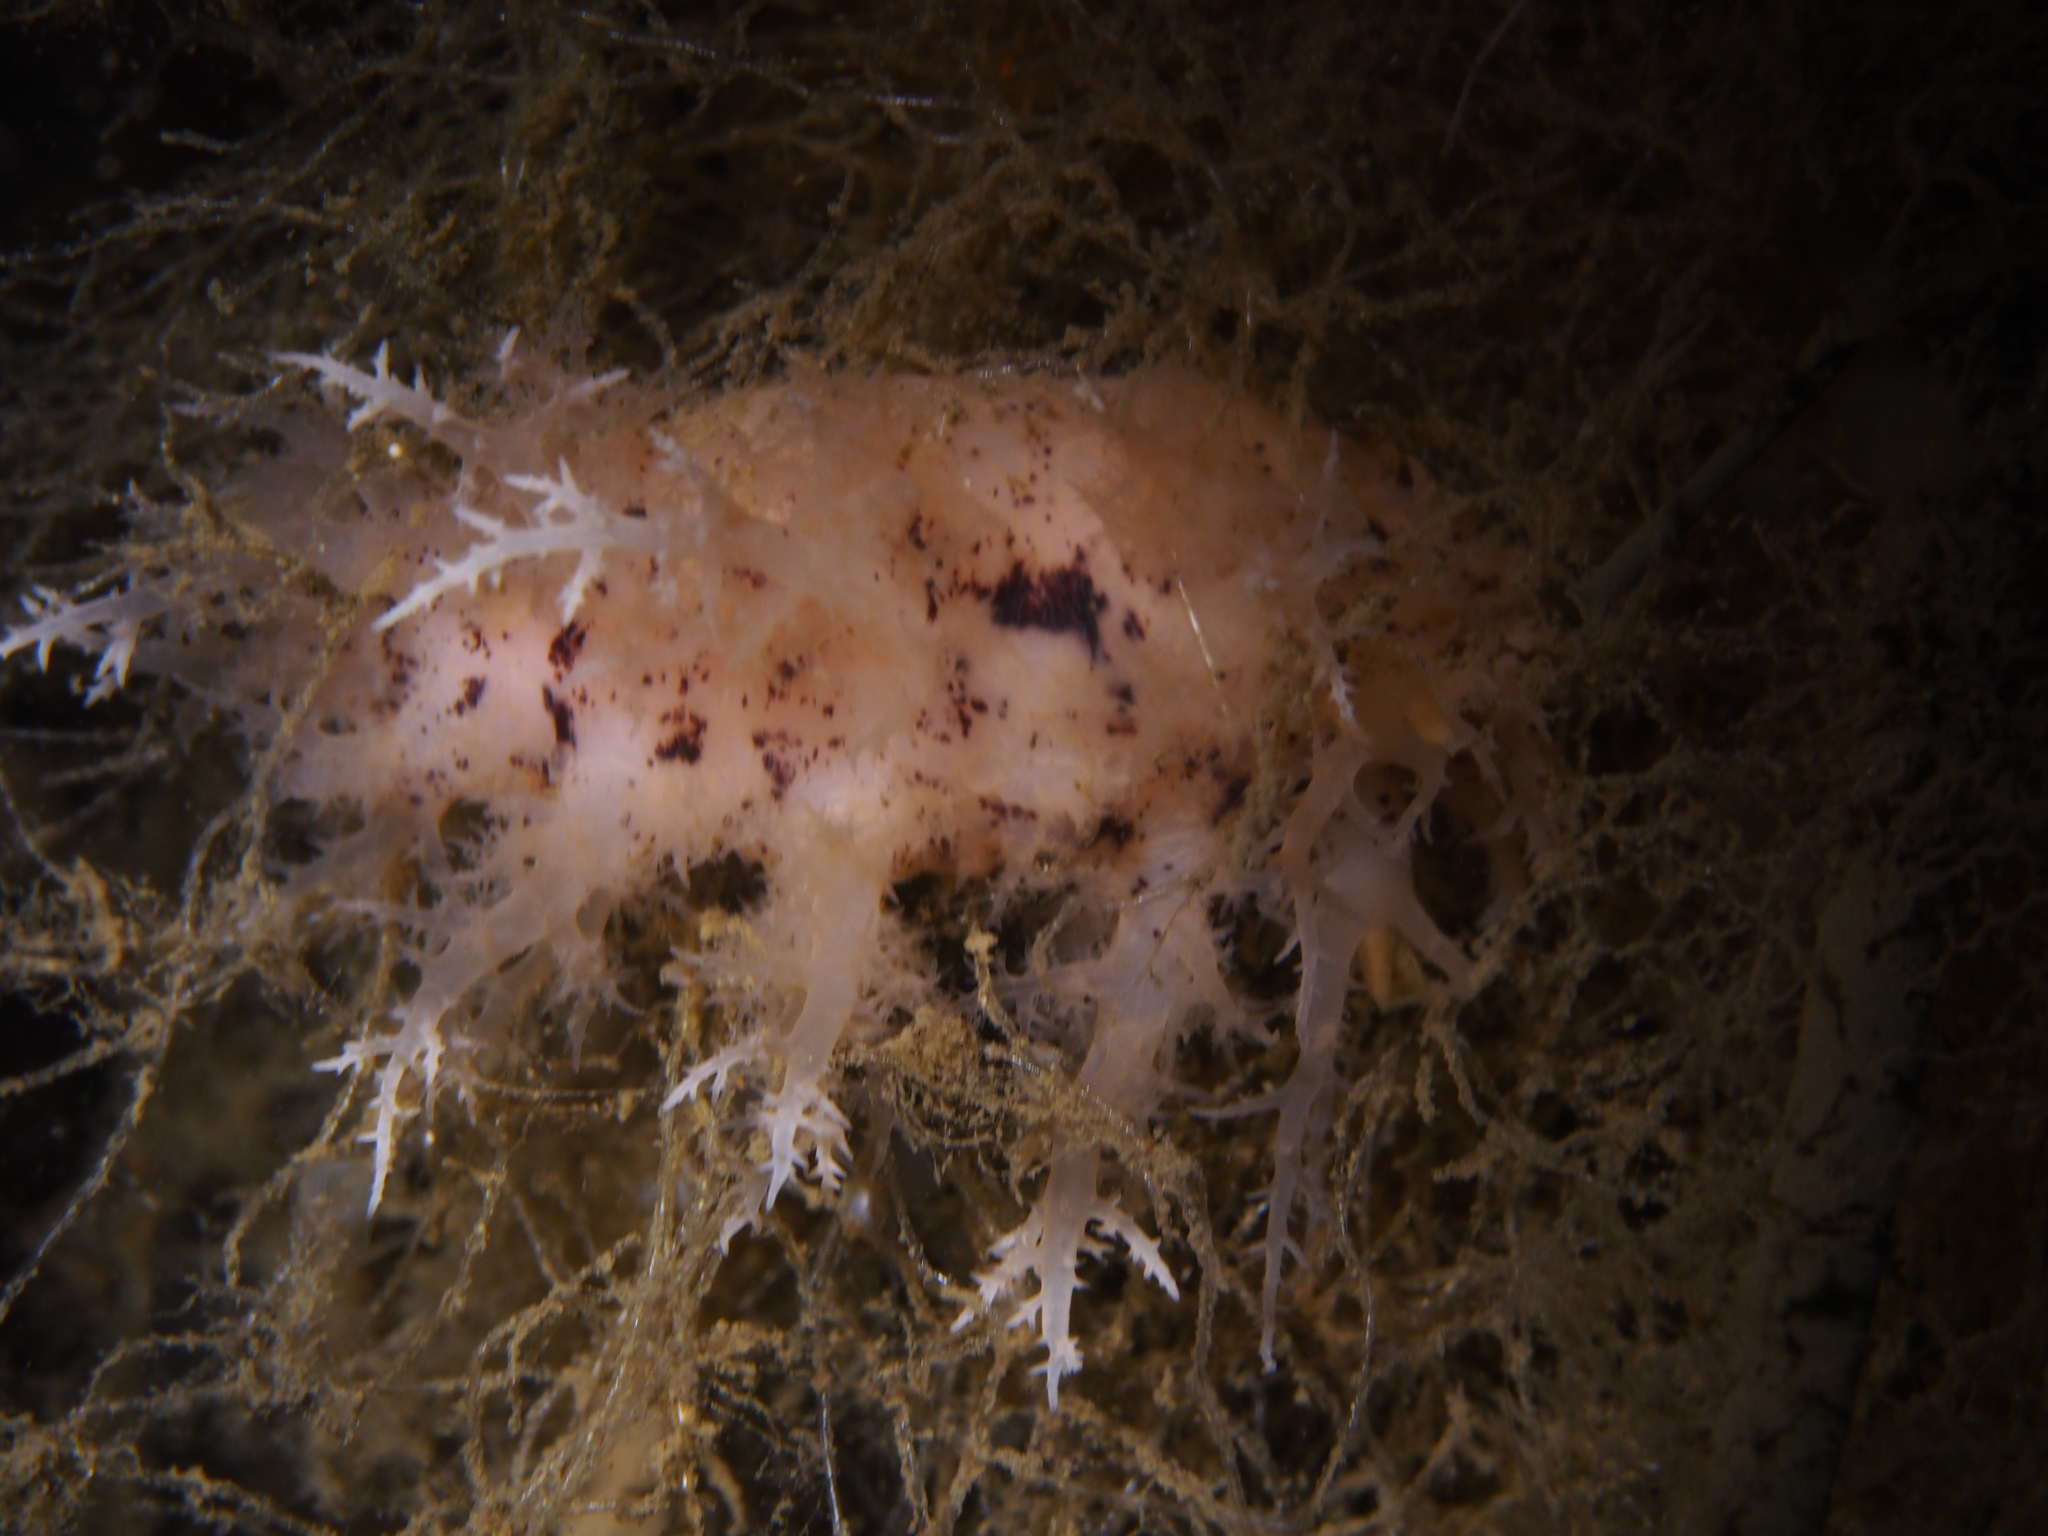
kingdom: Animalia
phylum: Mollusca
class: Gastropoda
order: Nudibranchia
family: Dendronotidae
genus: Dendronotus
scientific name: Dendronotus europaeus
